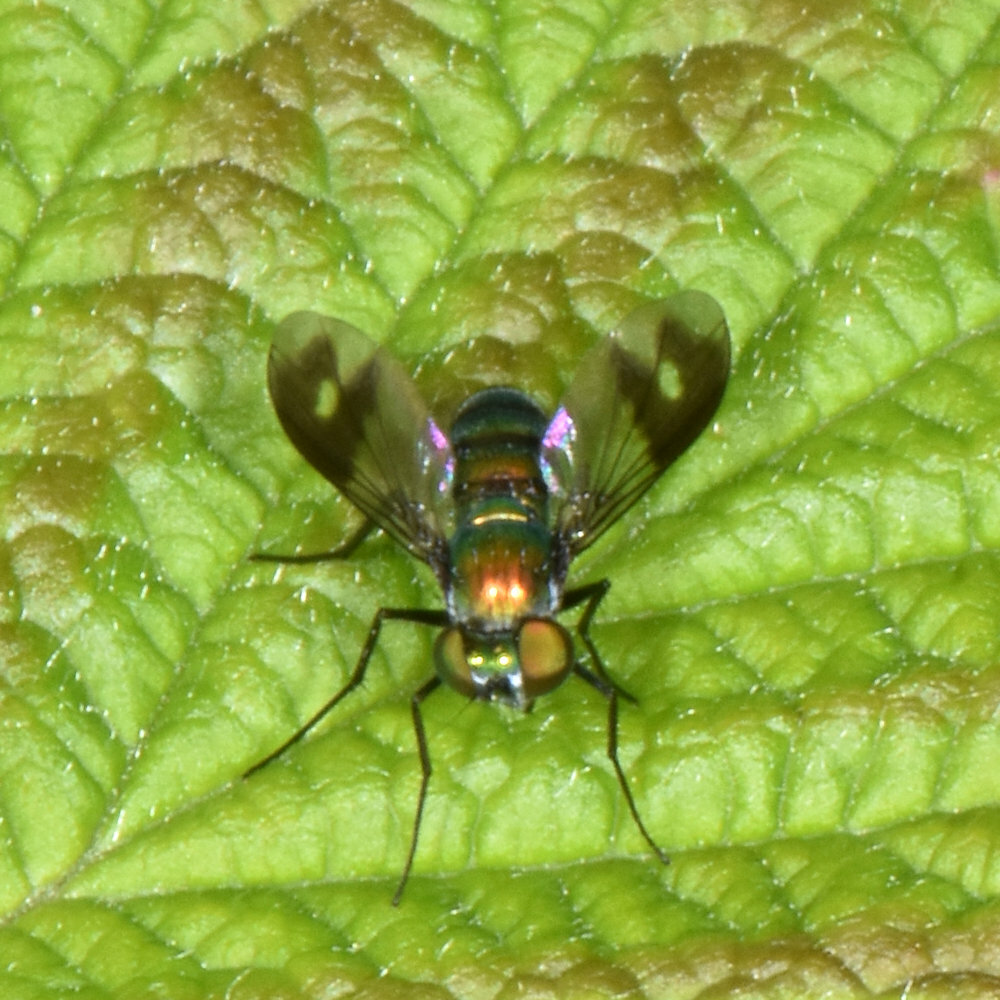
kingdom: Animalia
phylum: Arthropoda
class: Insecta
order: Diptera
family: Dolichopodidae
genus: Condylostylus
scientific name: Condylostylus patibulatus
